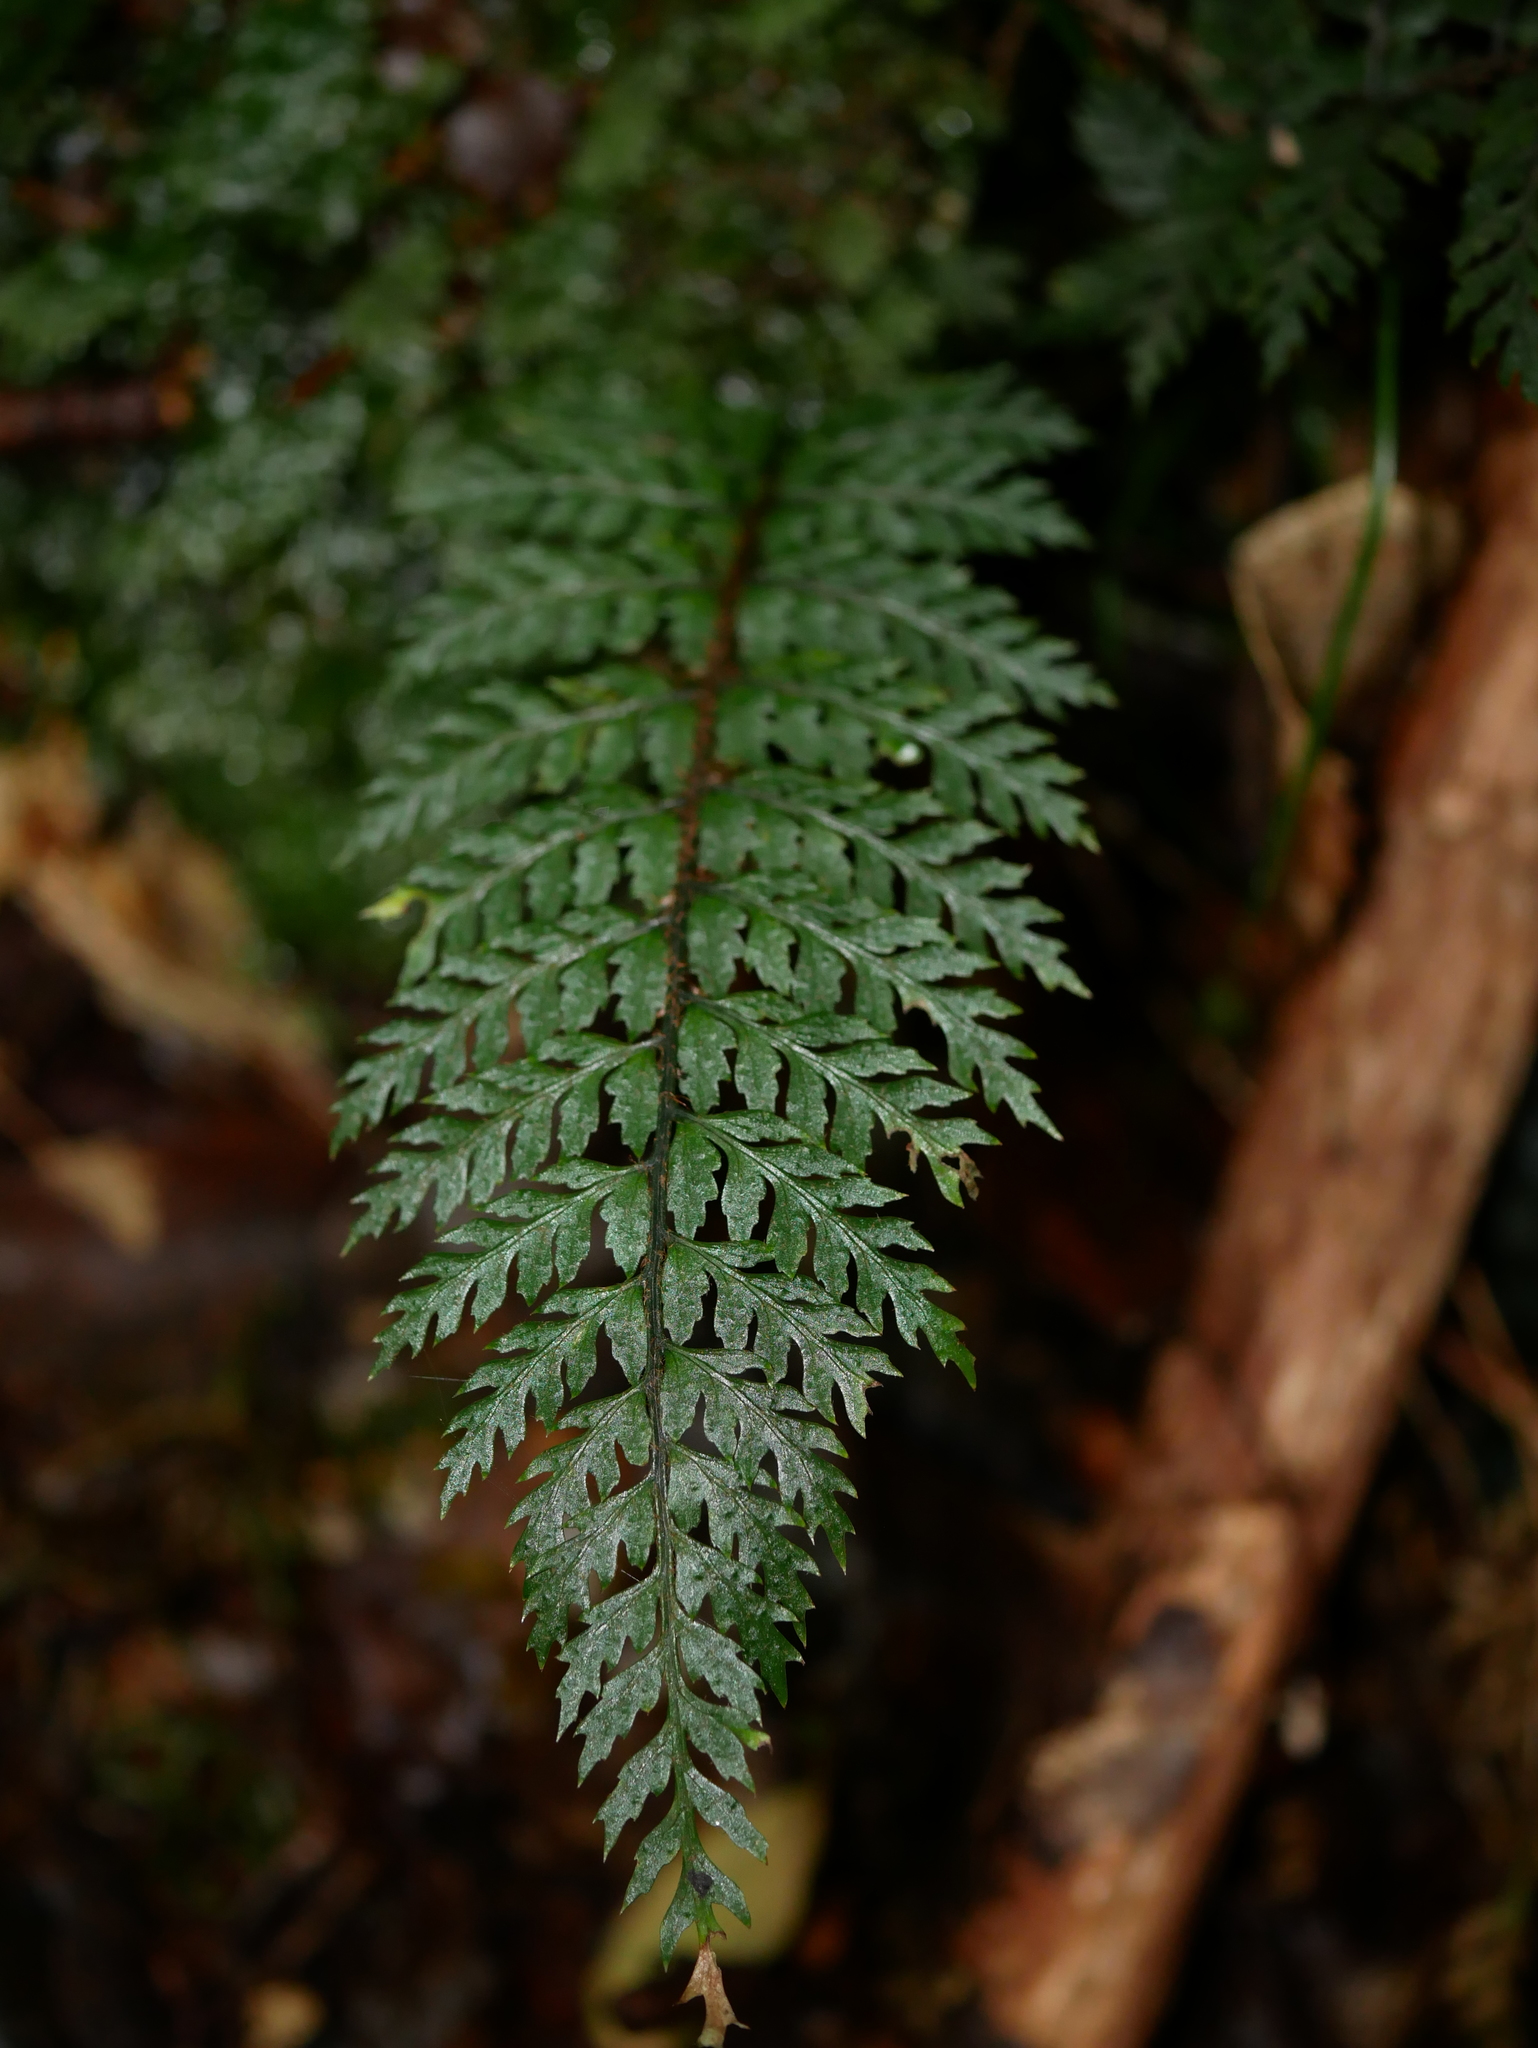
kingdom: Plantae
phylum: Tracheophyta
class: Polypodiopsida
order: Polypodiales
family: Dryopteridaceae
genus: Polystichum
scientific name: Polystichum silvaticum
